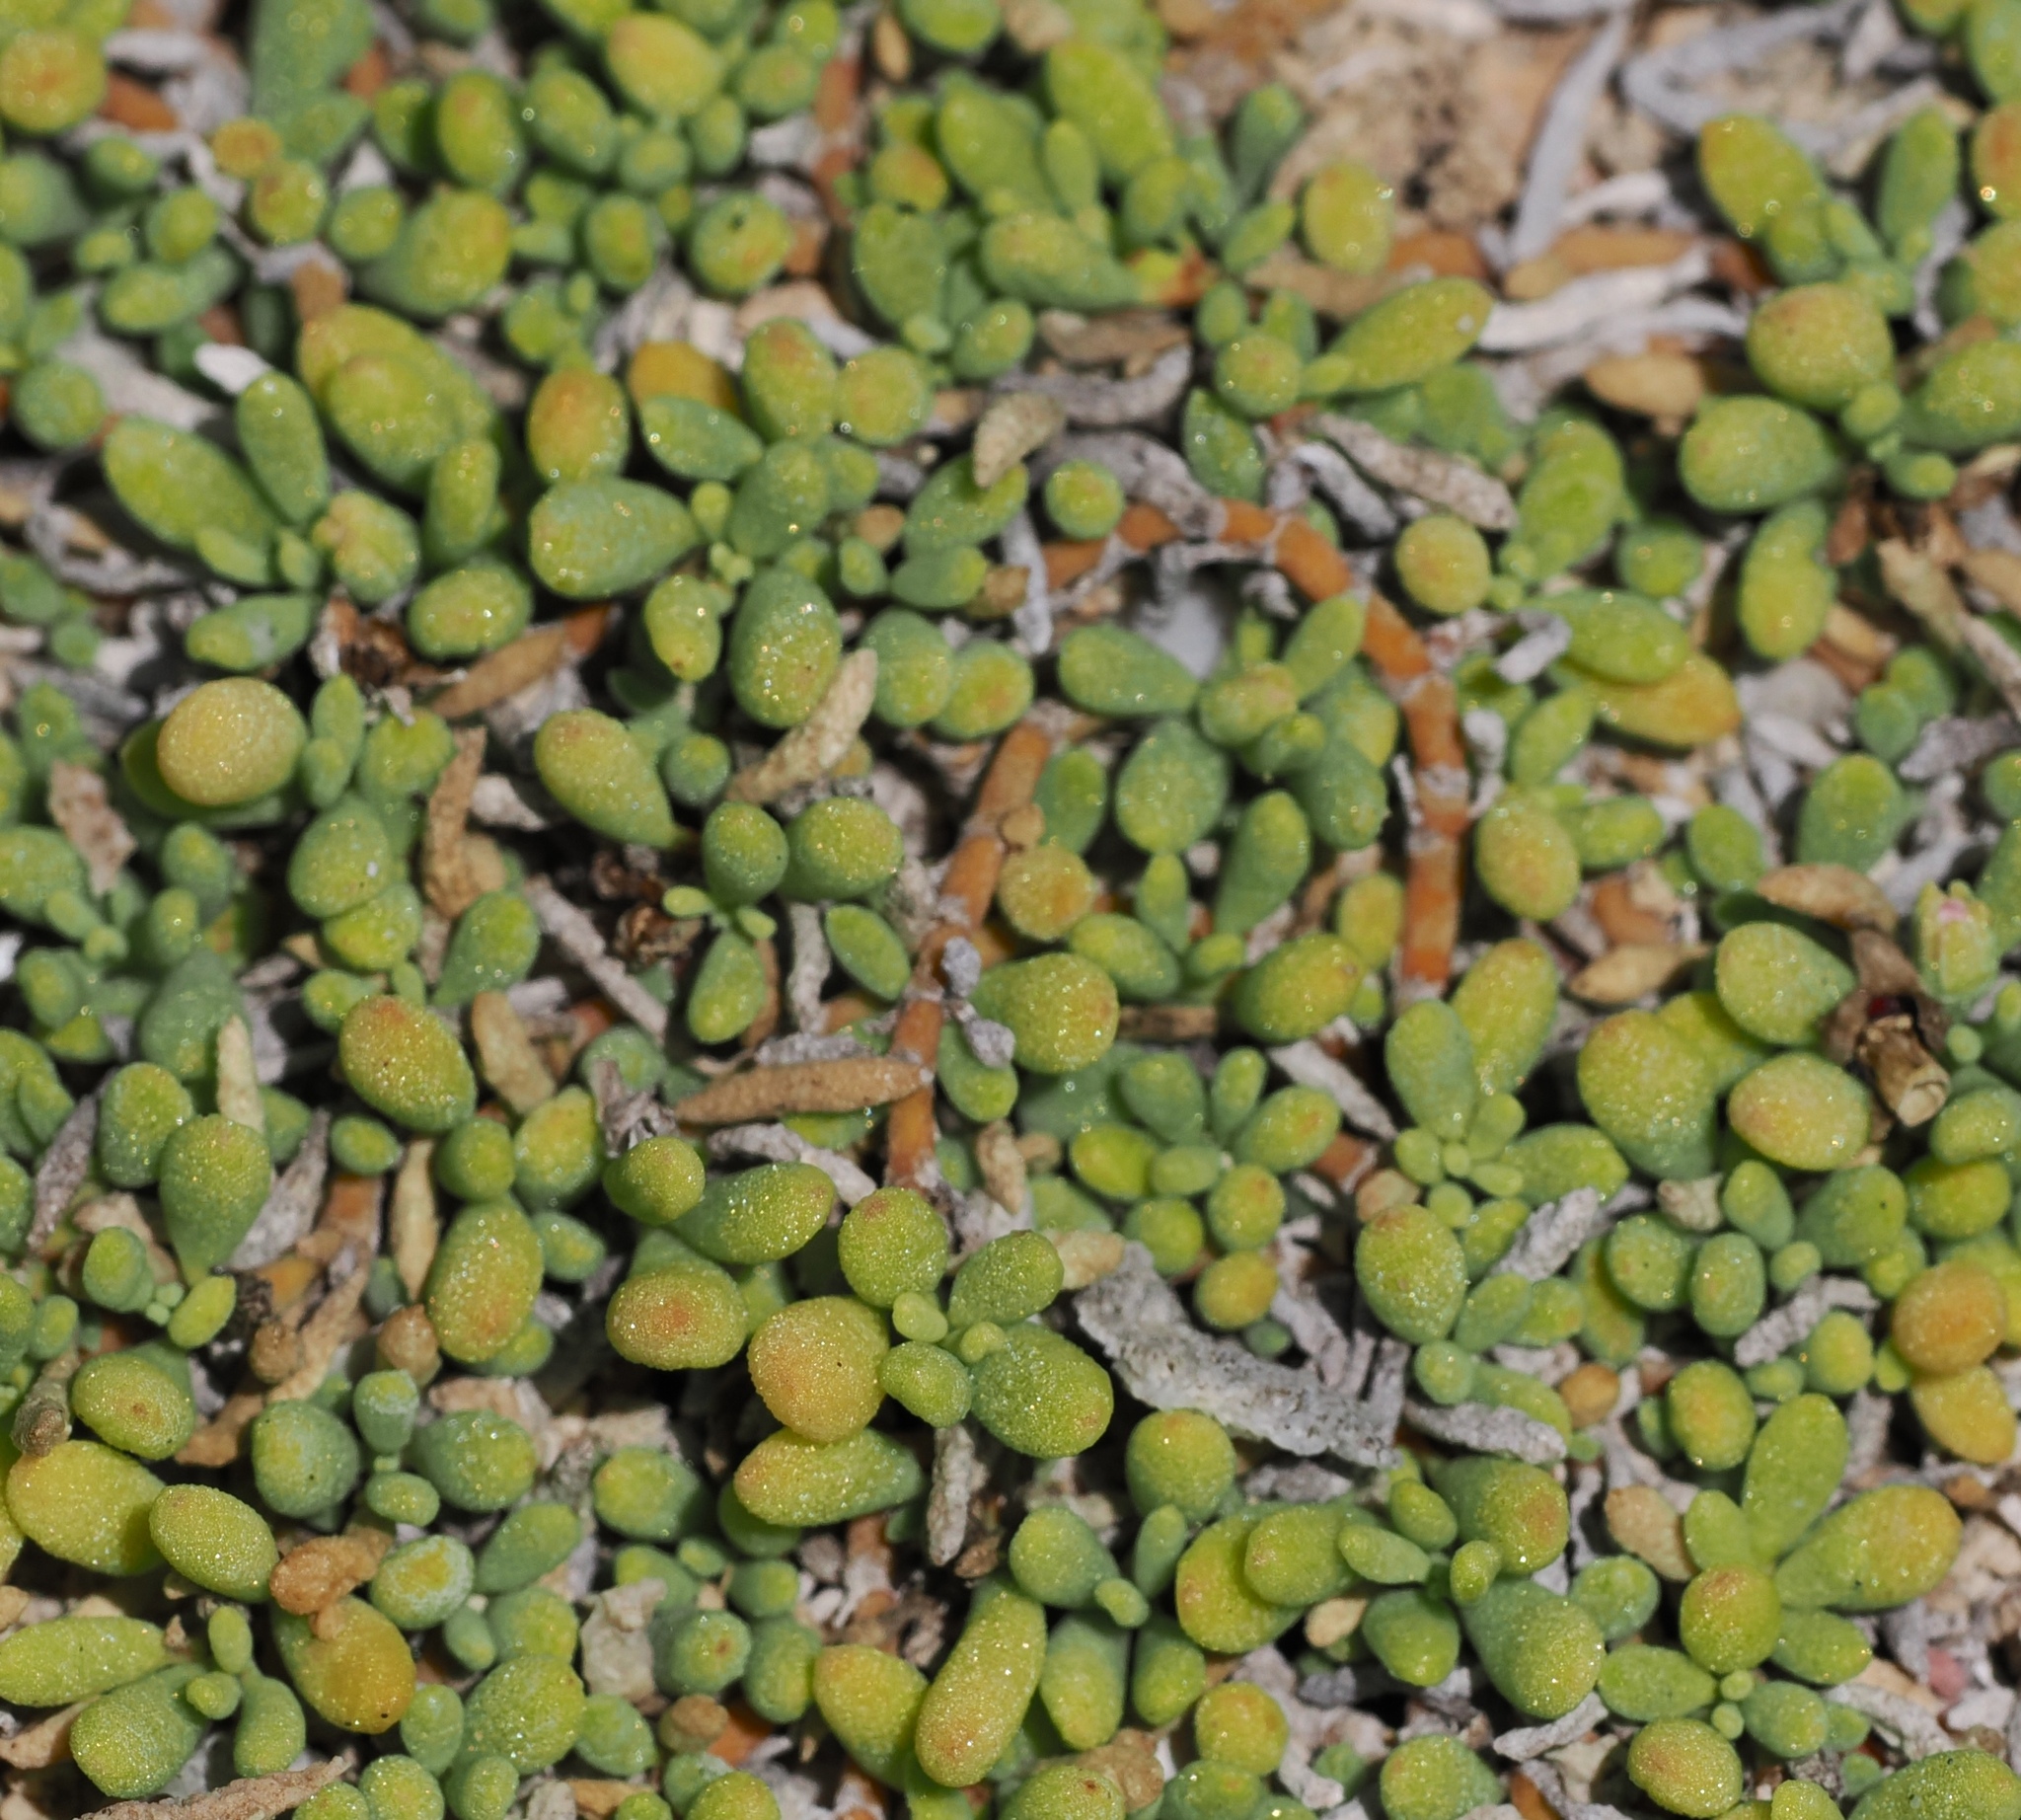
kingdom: Plantae
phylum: Tracheophyta
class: Magnoliopsida
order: Caryophyllales
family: Aizoaceae
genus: Sesuvium
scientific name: Sesuvium portulacastrum
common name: Sea-purslane
